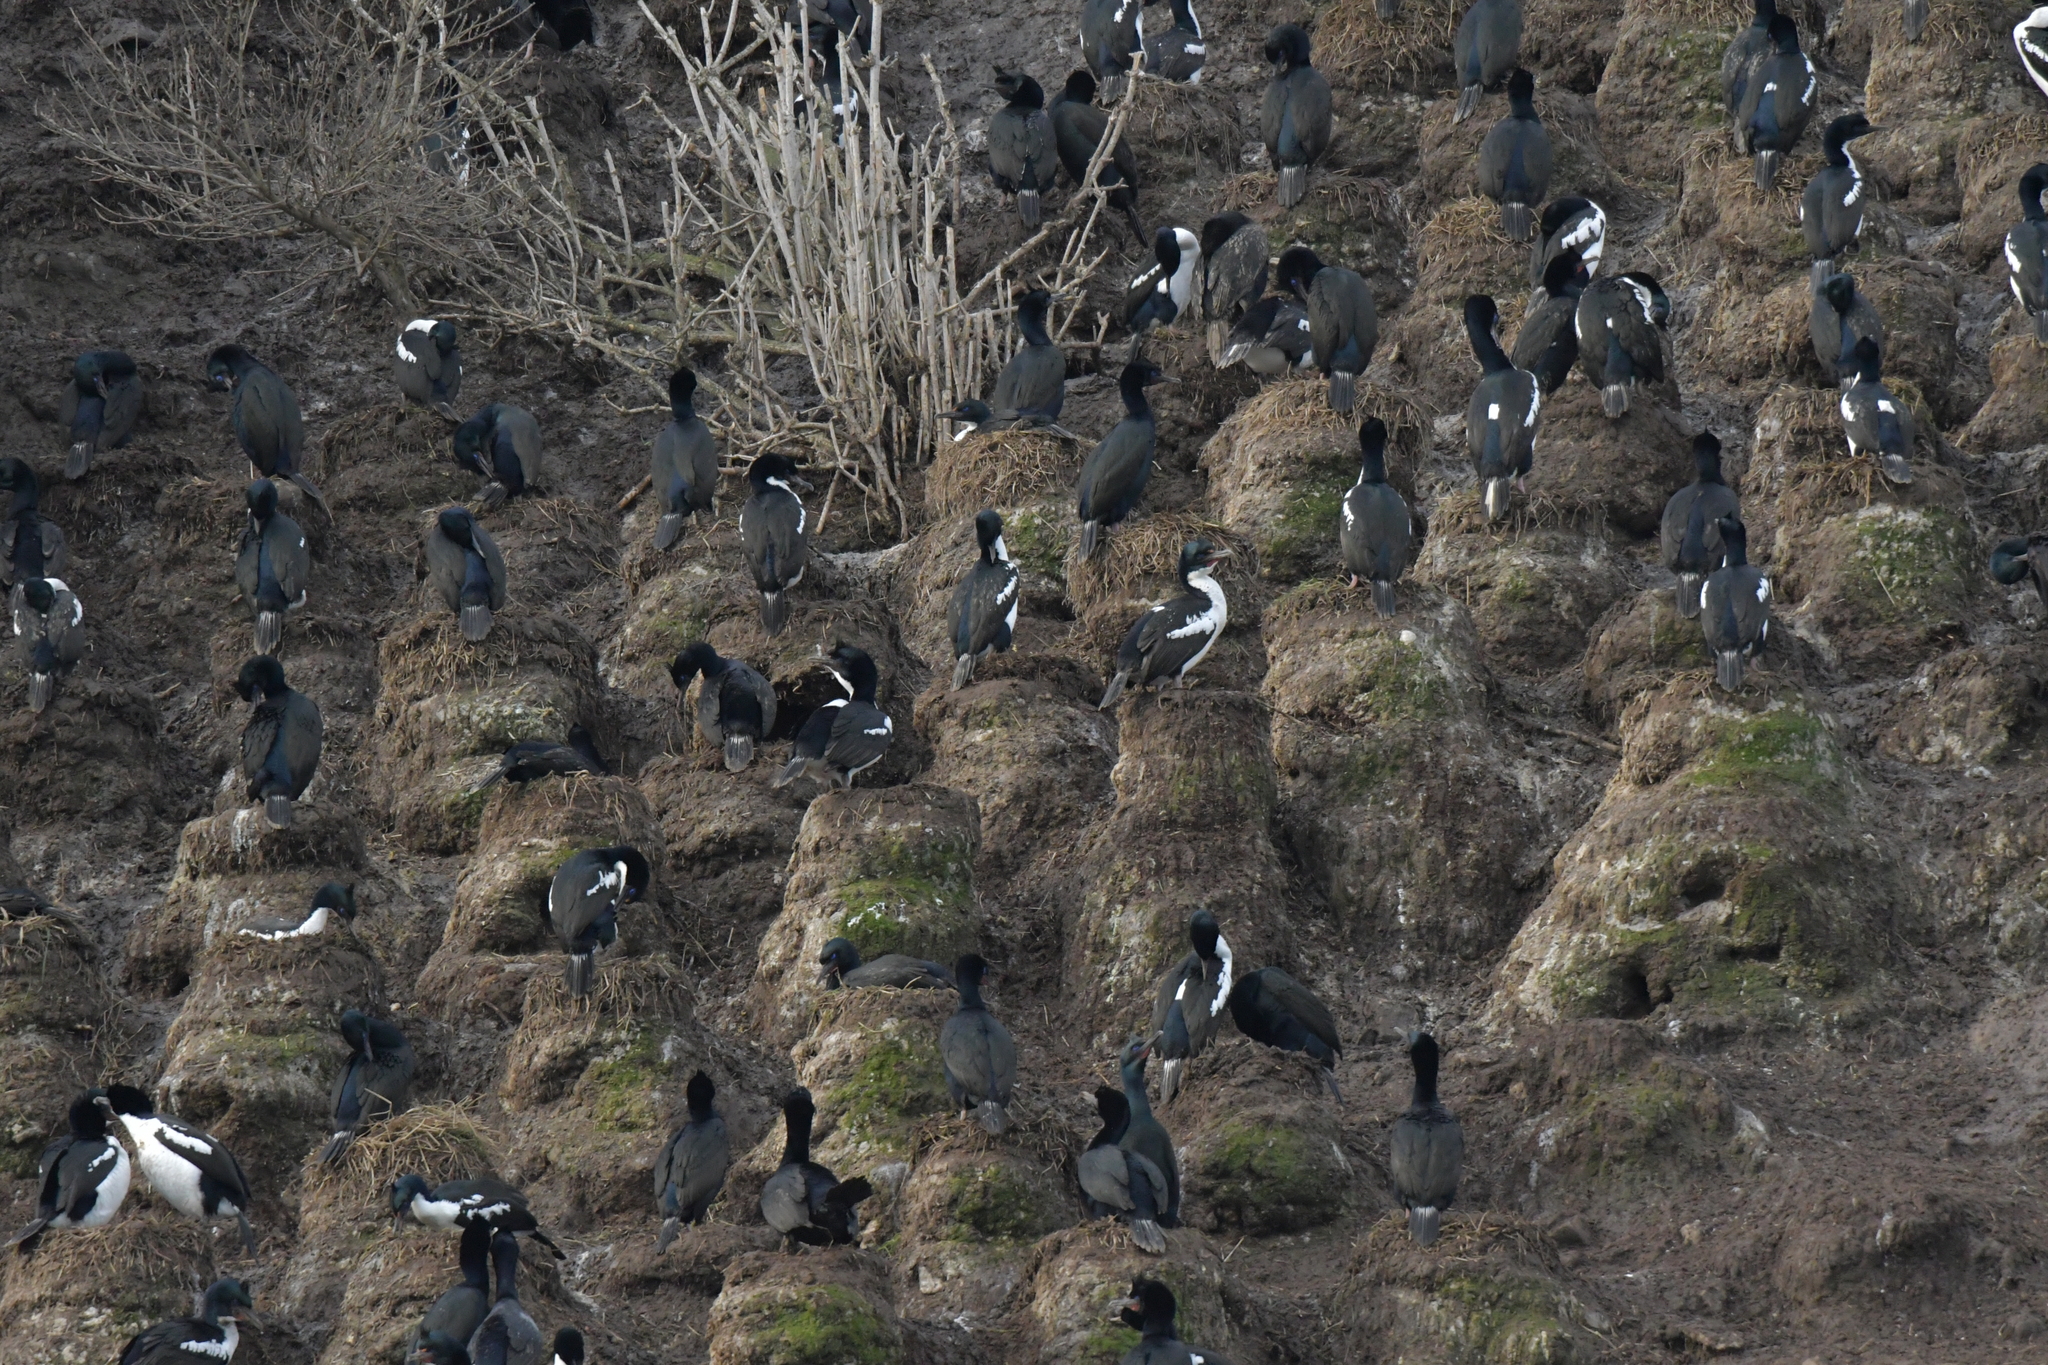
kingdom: Animalia
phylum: Chordata
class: Aves
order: Suliformes
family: Phalacrocoracidae
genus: Leucocarbo
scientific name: Leucocarbo chalconotus
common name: Stewart shag
